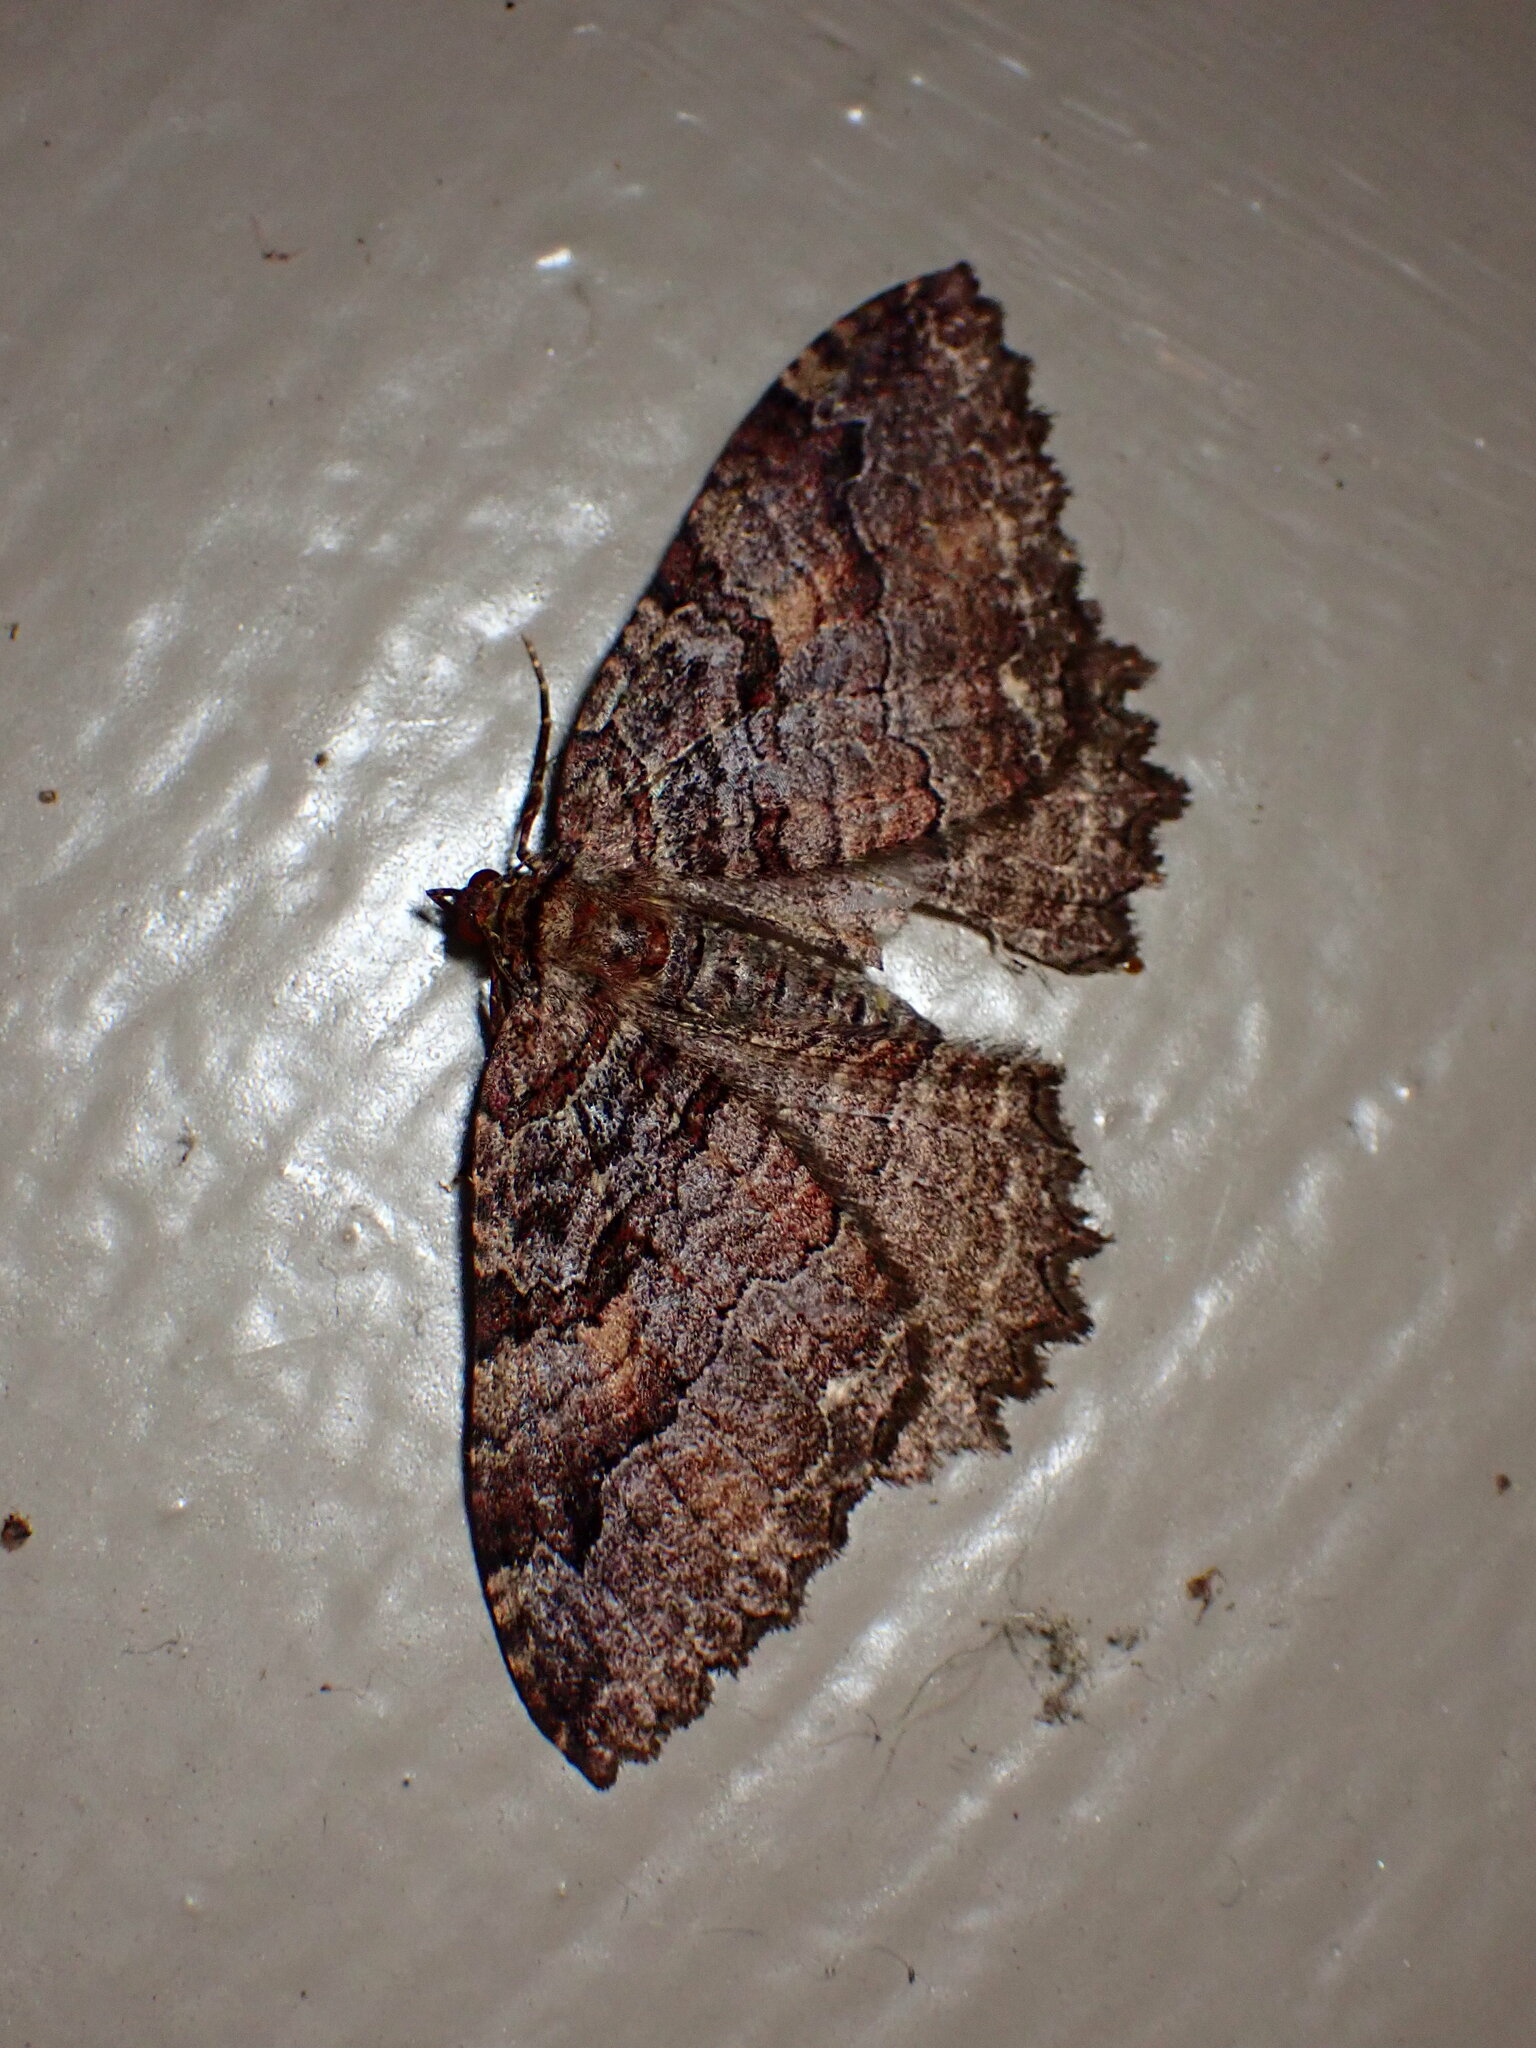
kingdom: Animalia
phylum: Arthropoda
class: Insecta
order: Lepidoptera
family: Geometridae
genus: Triphosa
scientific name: Triphosa haesitata
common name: Tissue moth
